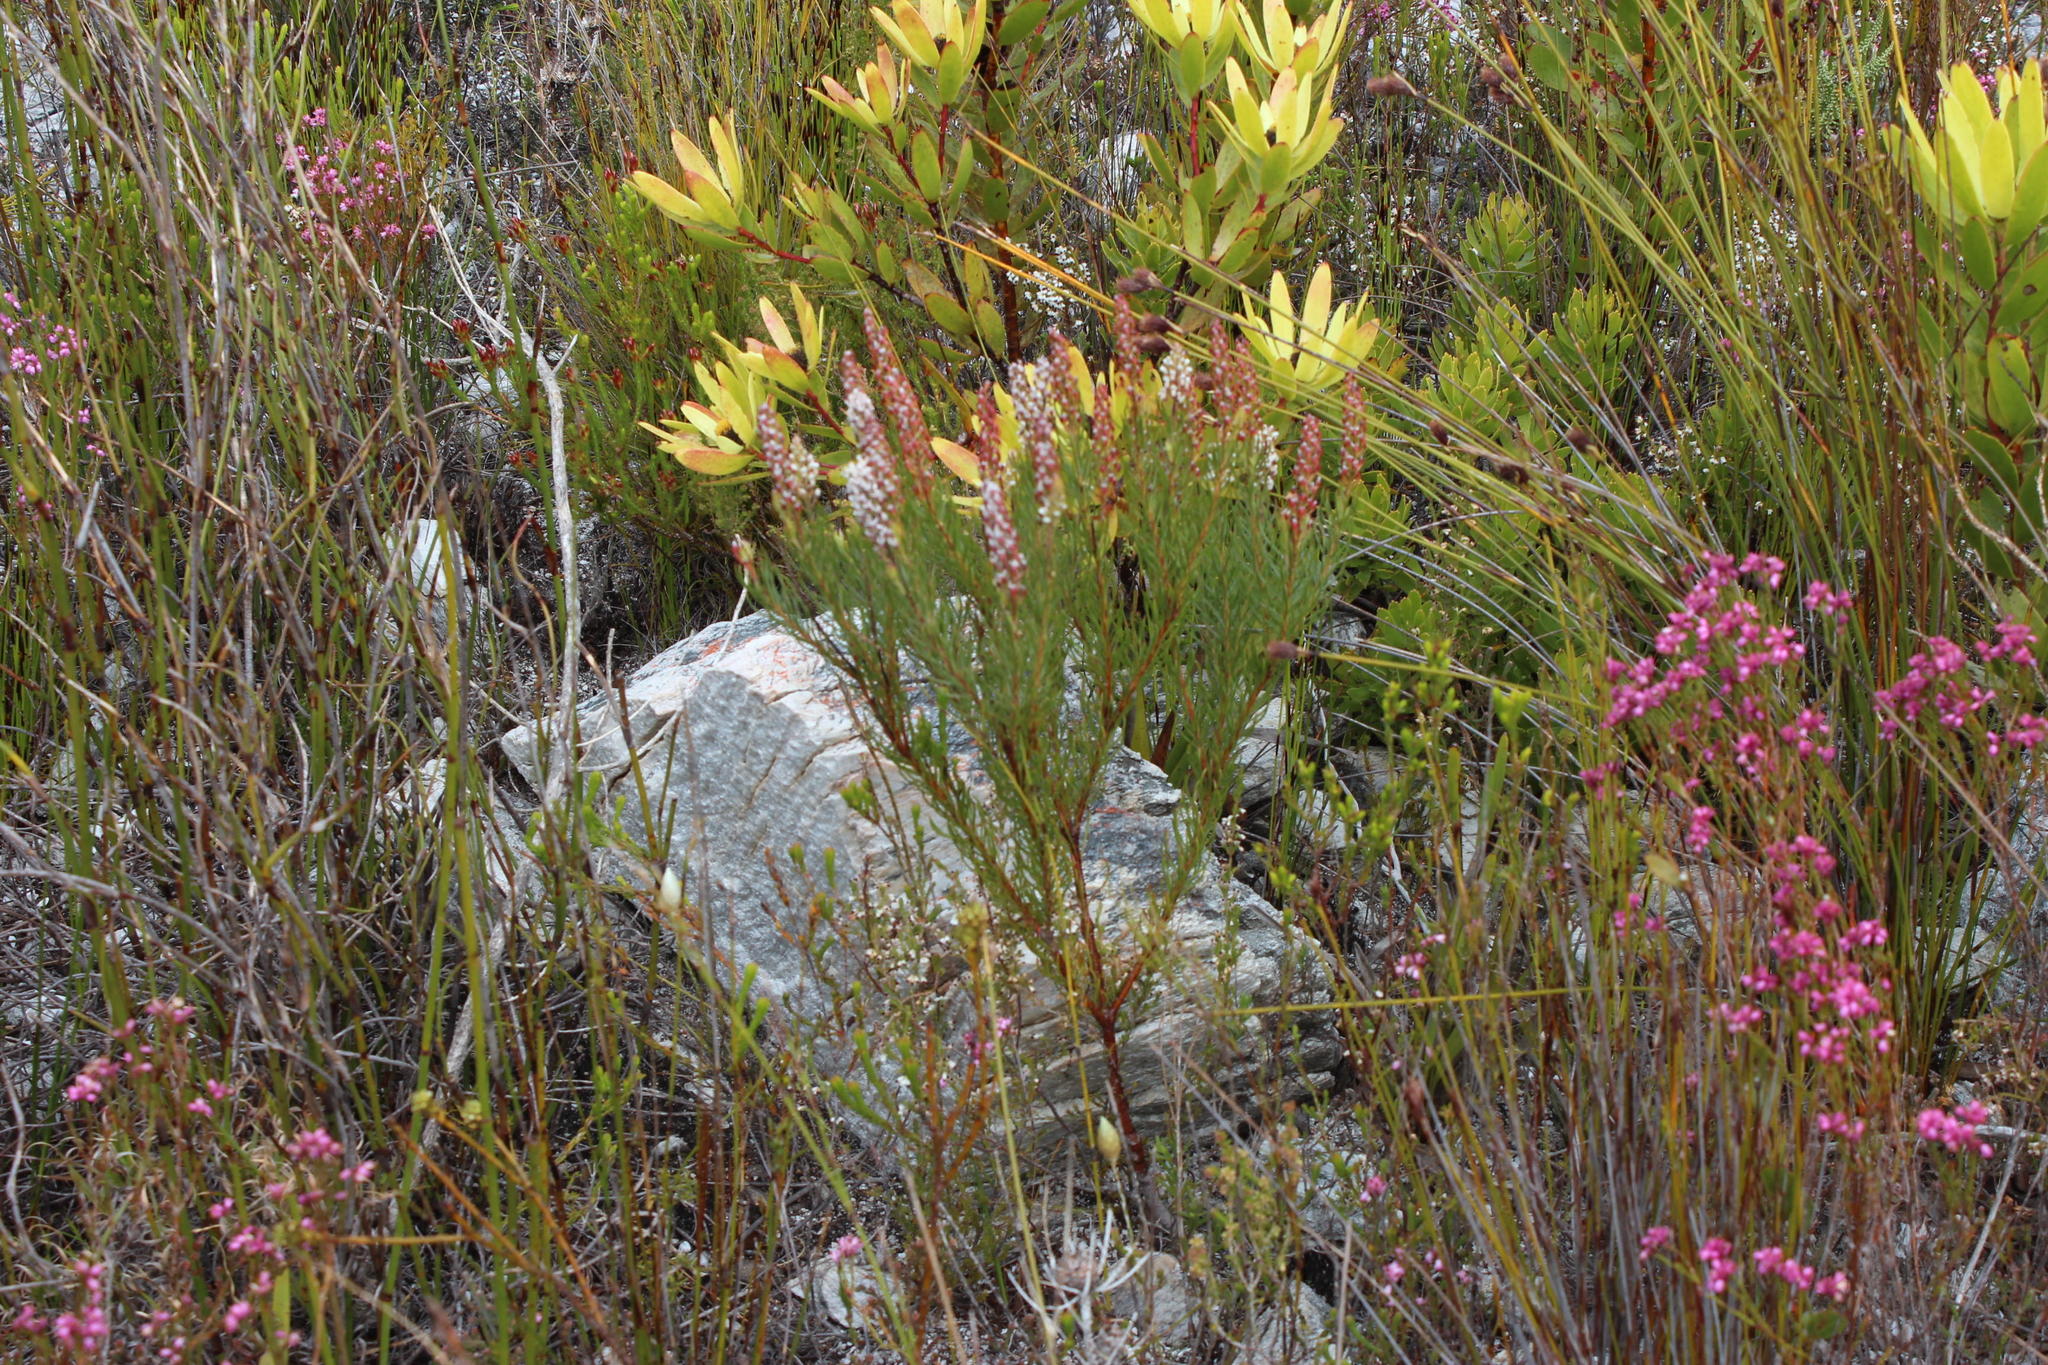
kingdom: Plantae
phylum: Tracheophyta
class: Magnoliopsida
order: Proteales
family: Proteaceae
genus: Spatalla
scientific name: Spatalla curvifolia
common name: White-stalked spoon
